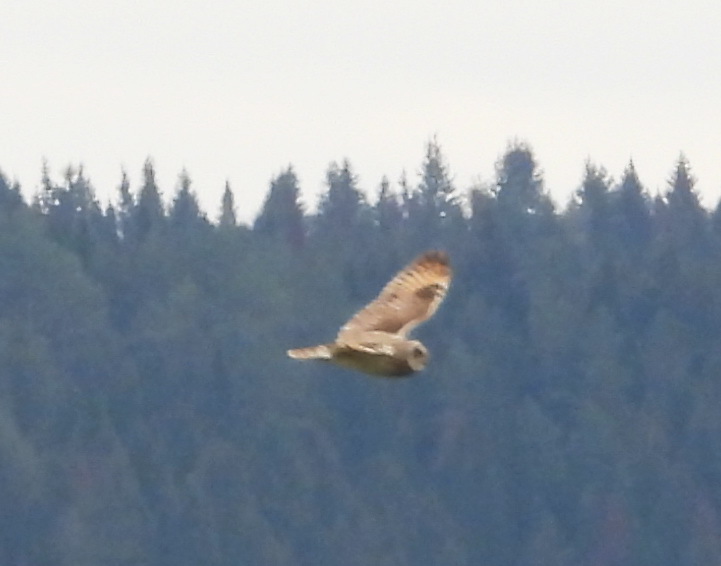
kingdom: Animalia
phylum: Chordata
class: Aves
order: Strigiformes
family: Strigidae
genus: Asio
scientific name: Asio flammeus
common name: Short-eared owl
